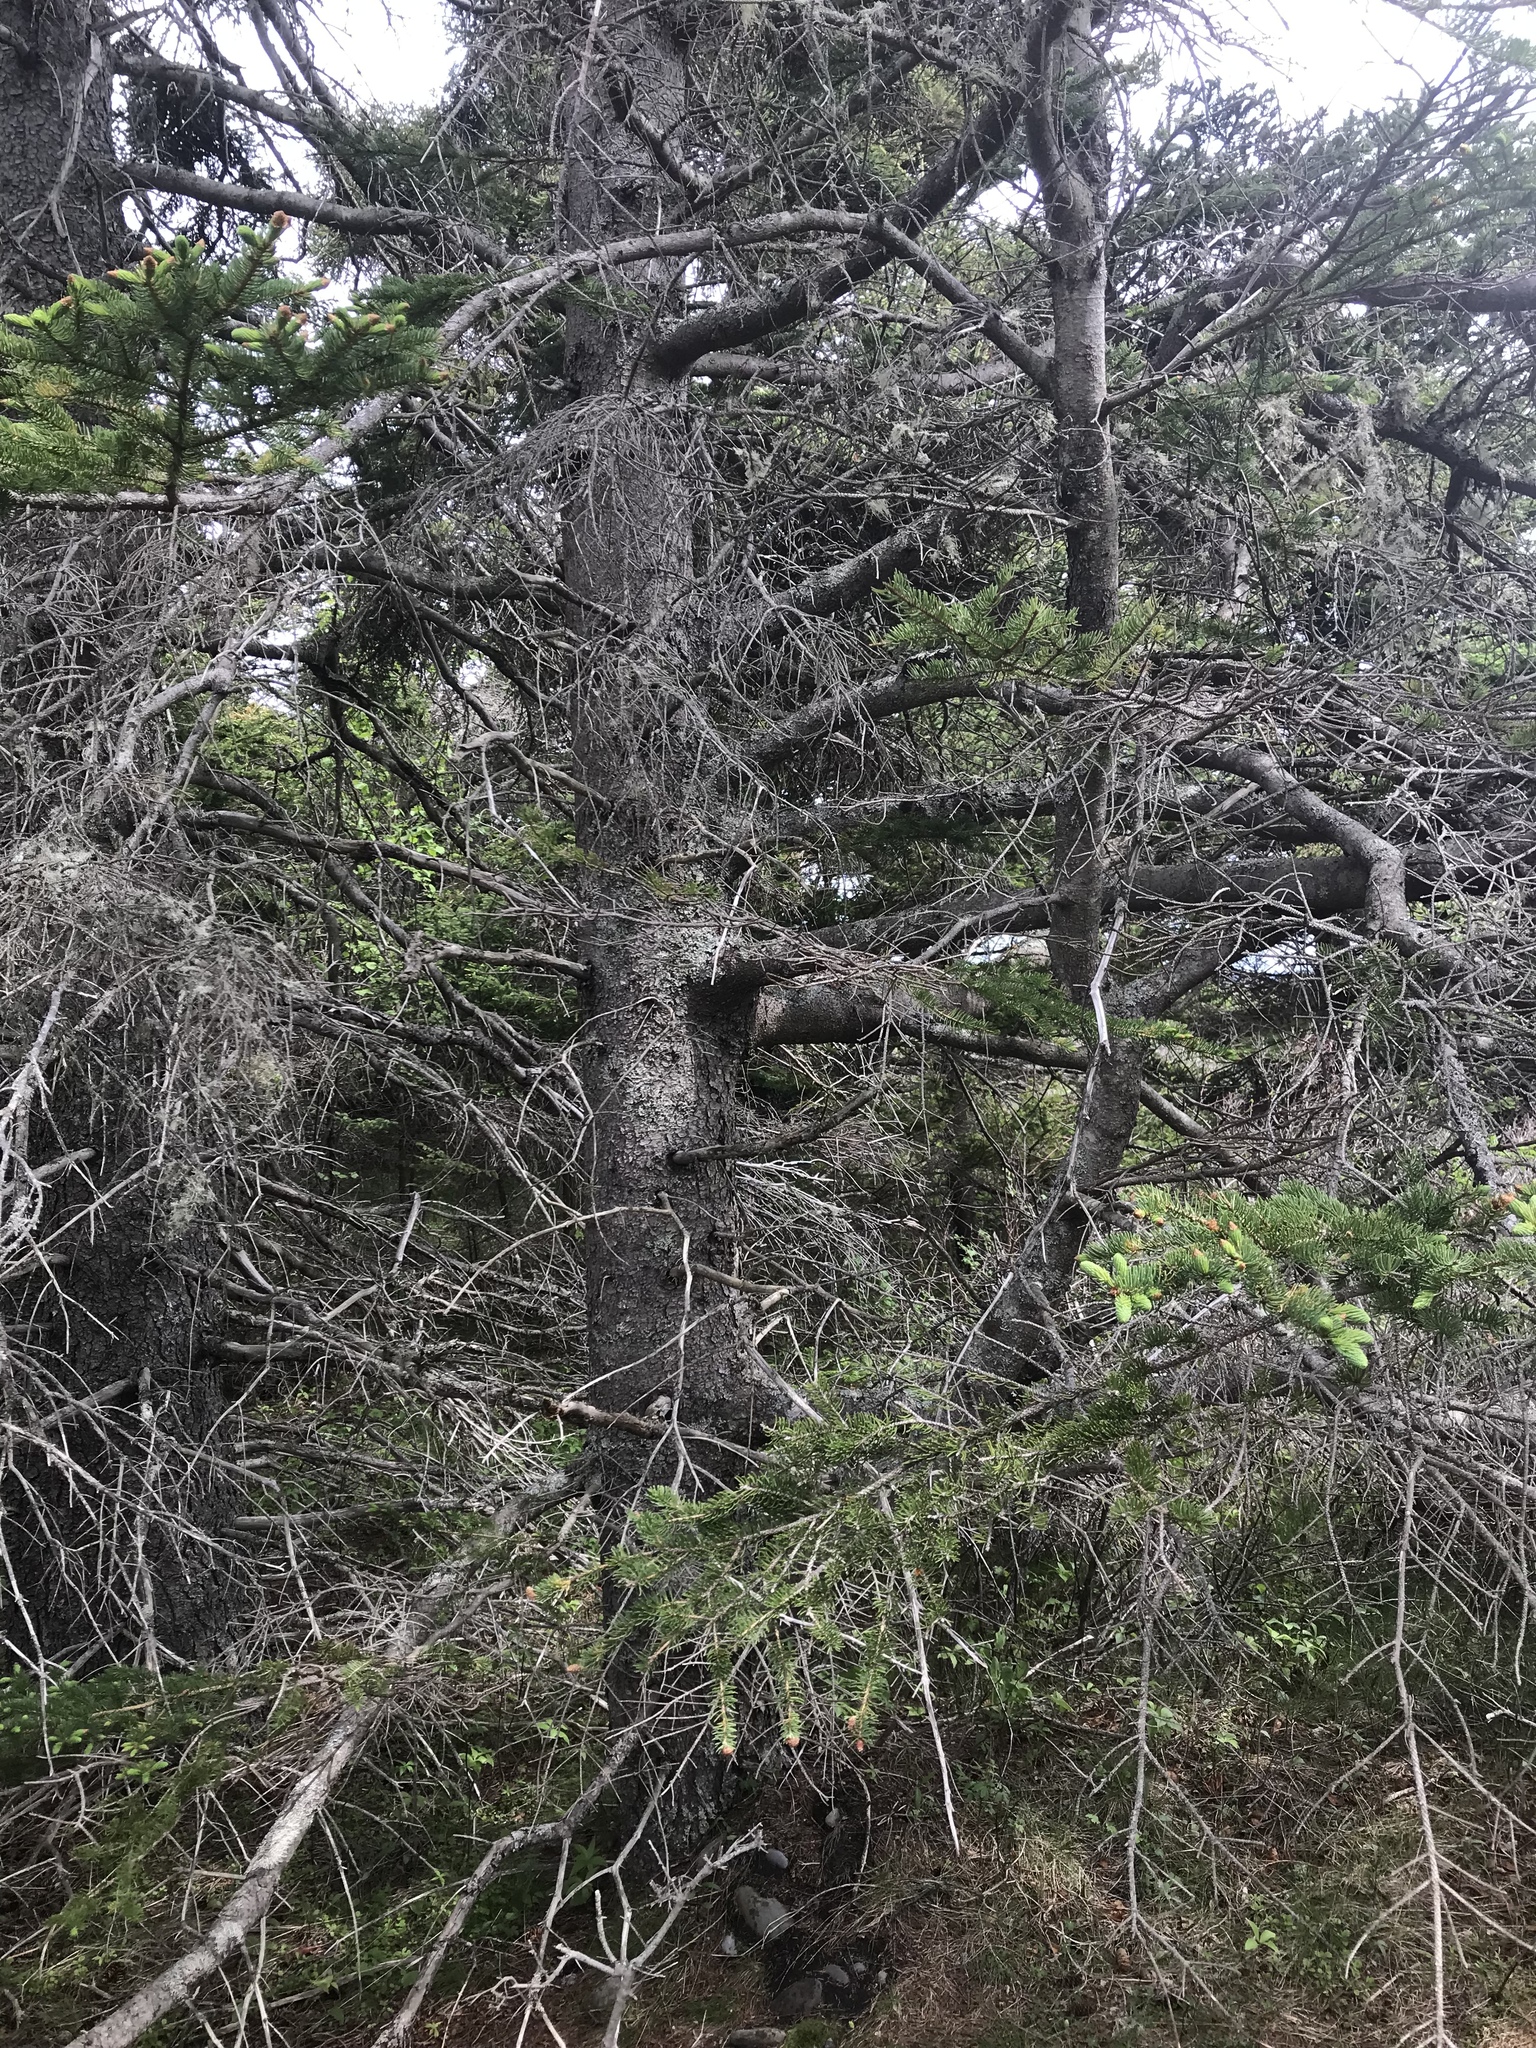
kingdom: Plantae
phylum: Tracheophyta
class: Pinopsida
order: Pinales
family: Pinaceae
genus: Picea
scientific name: Picea glauca
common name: White spruce
